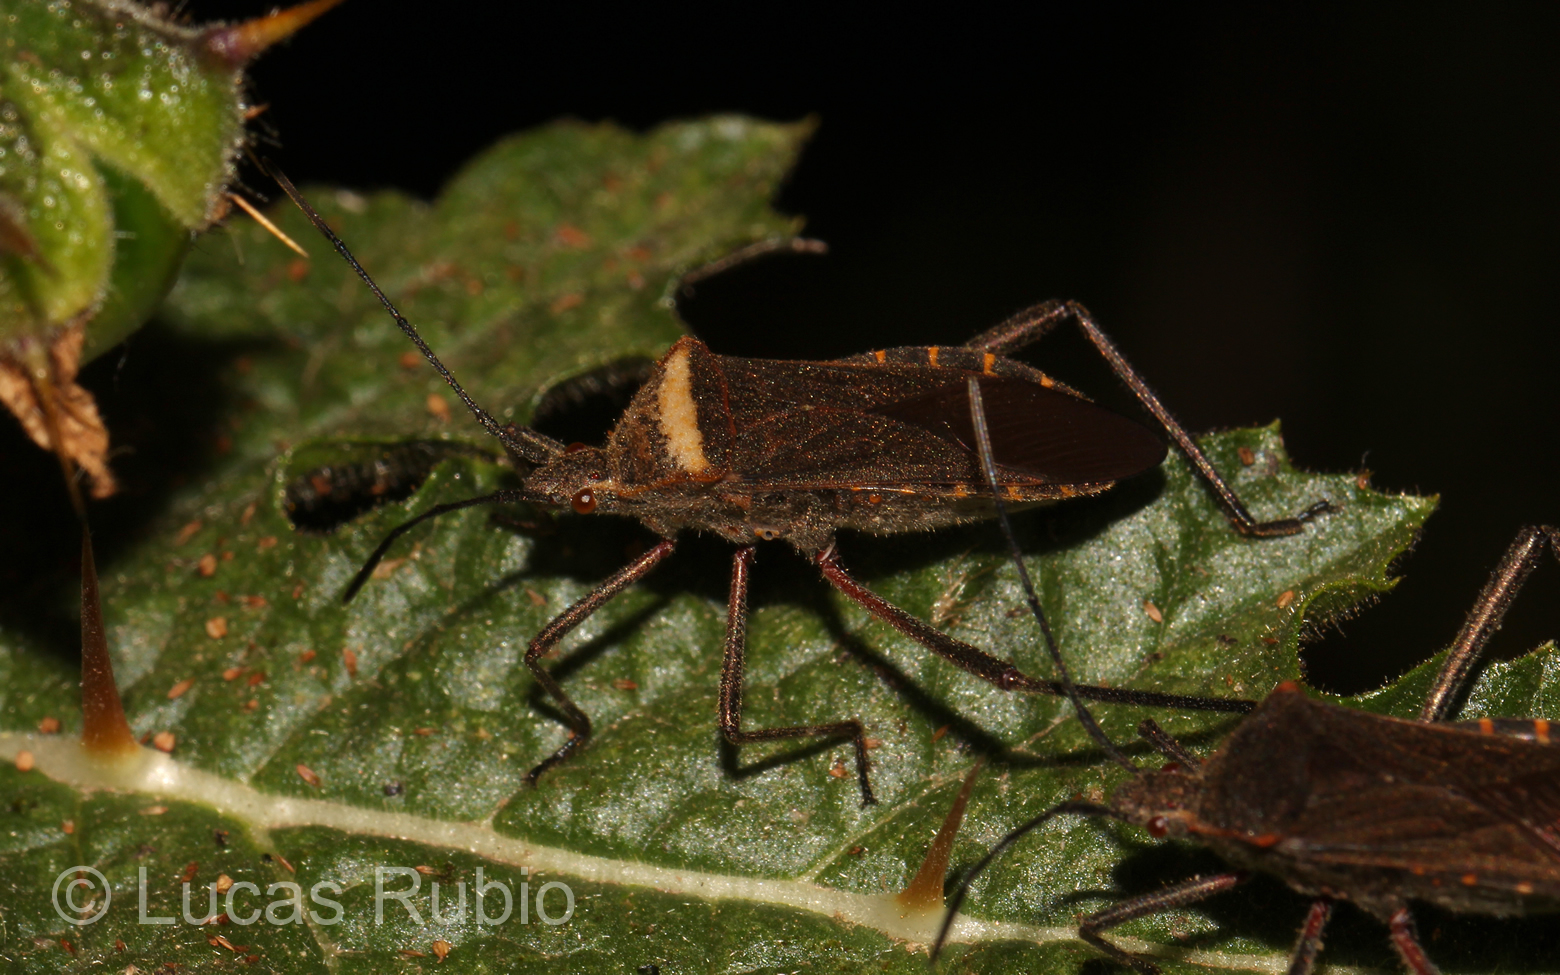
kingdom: Animalia
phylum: Arthropoda
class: Insecta
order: Hemiptera
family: Coreidae
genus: Phthiacnemia
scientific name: Phthiacnemia picta
